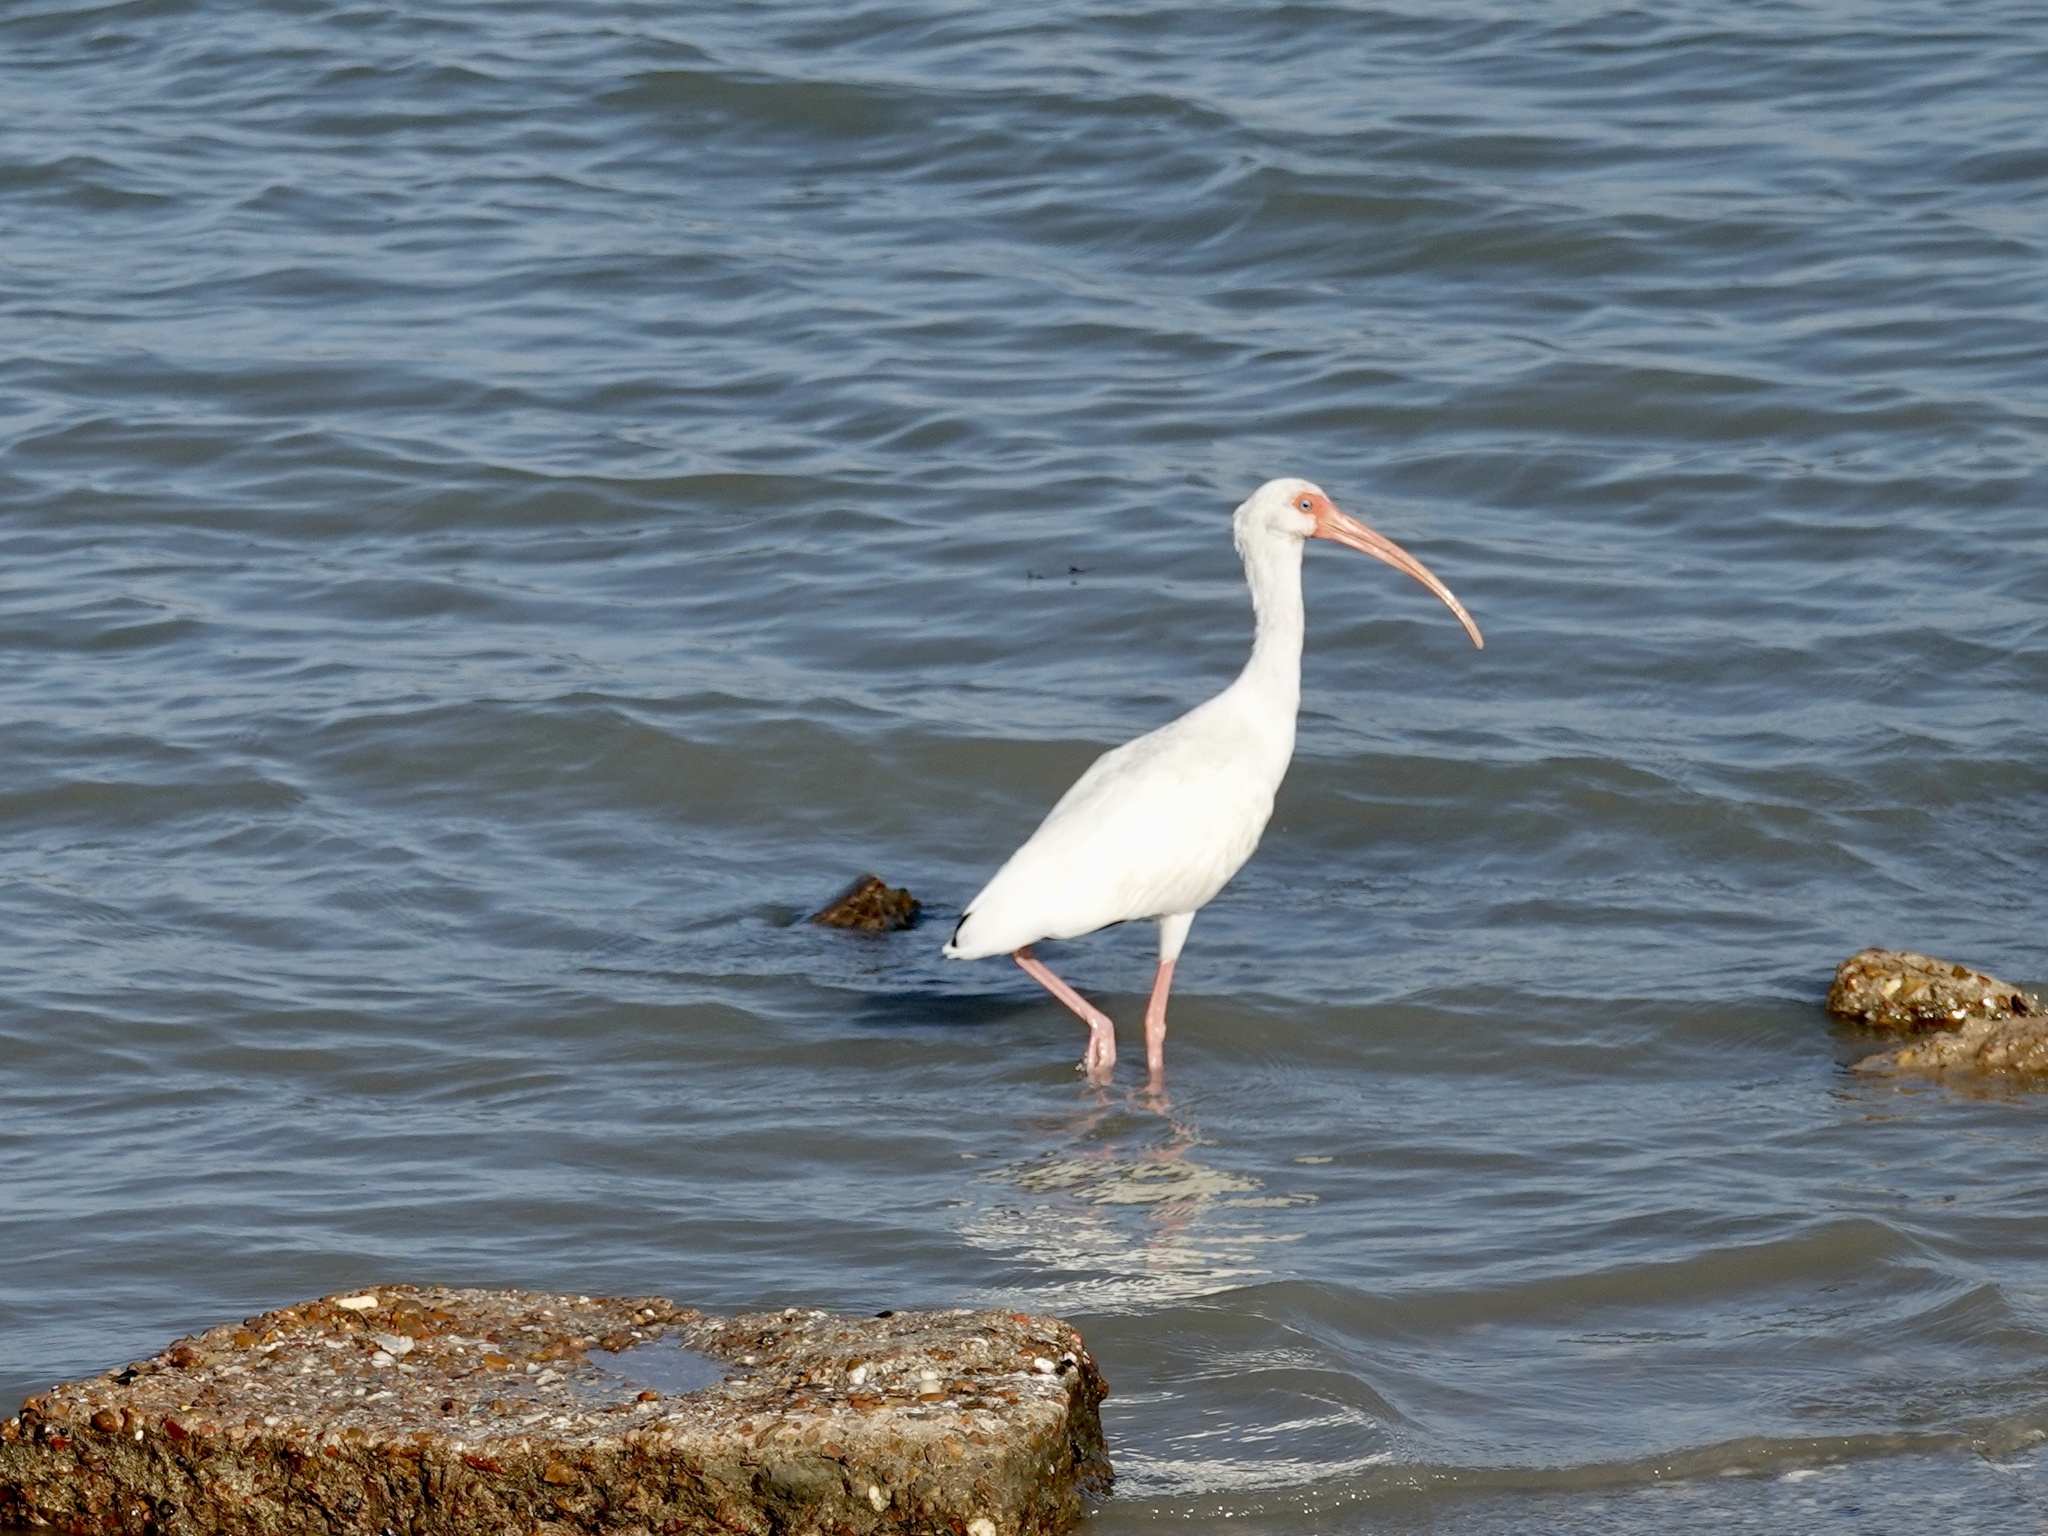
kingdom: Animalia
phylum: Chordata
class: Aves
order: Pelecaniformes
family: Threskiornithidae
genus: Eudocimus
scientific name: Eudocimus albus
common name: White ibis
